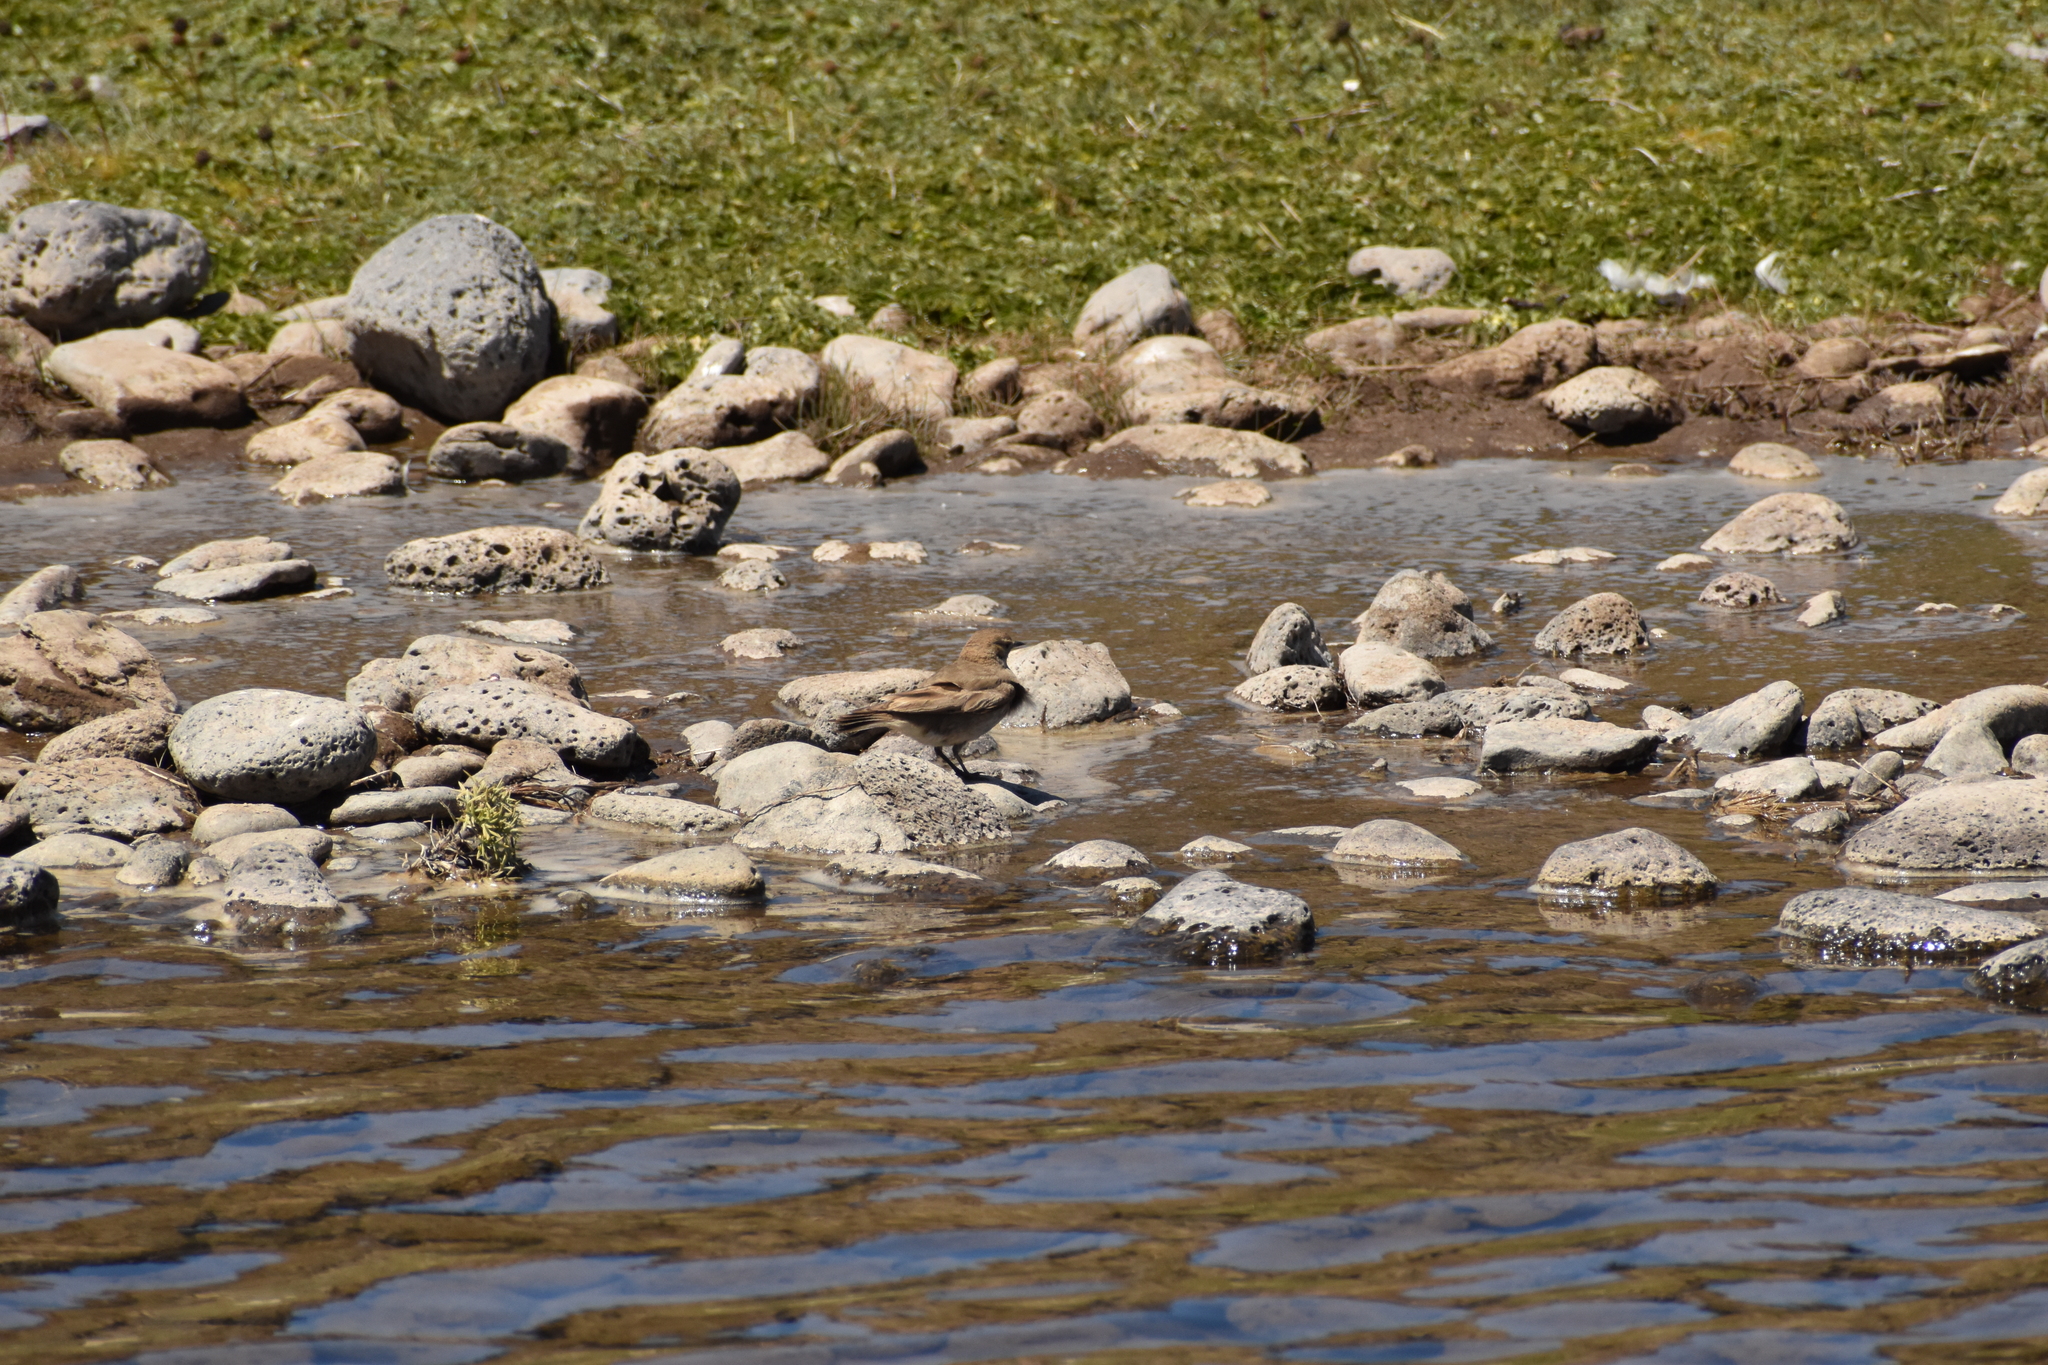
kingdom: Animalia
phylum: Chordata
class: Aves
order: Passeriformes
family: Furnariidae
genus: Geositta
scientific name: Geositta antarctica
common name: Short-billed miner
